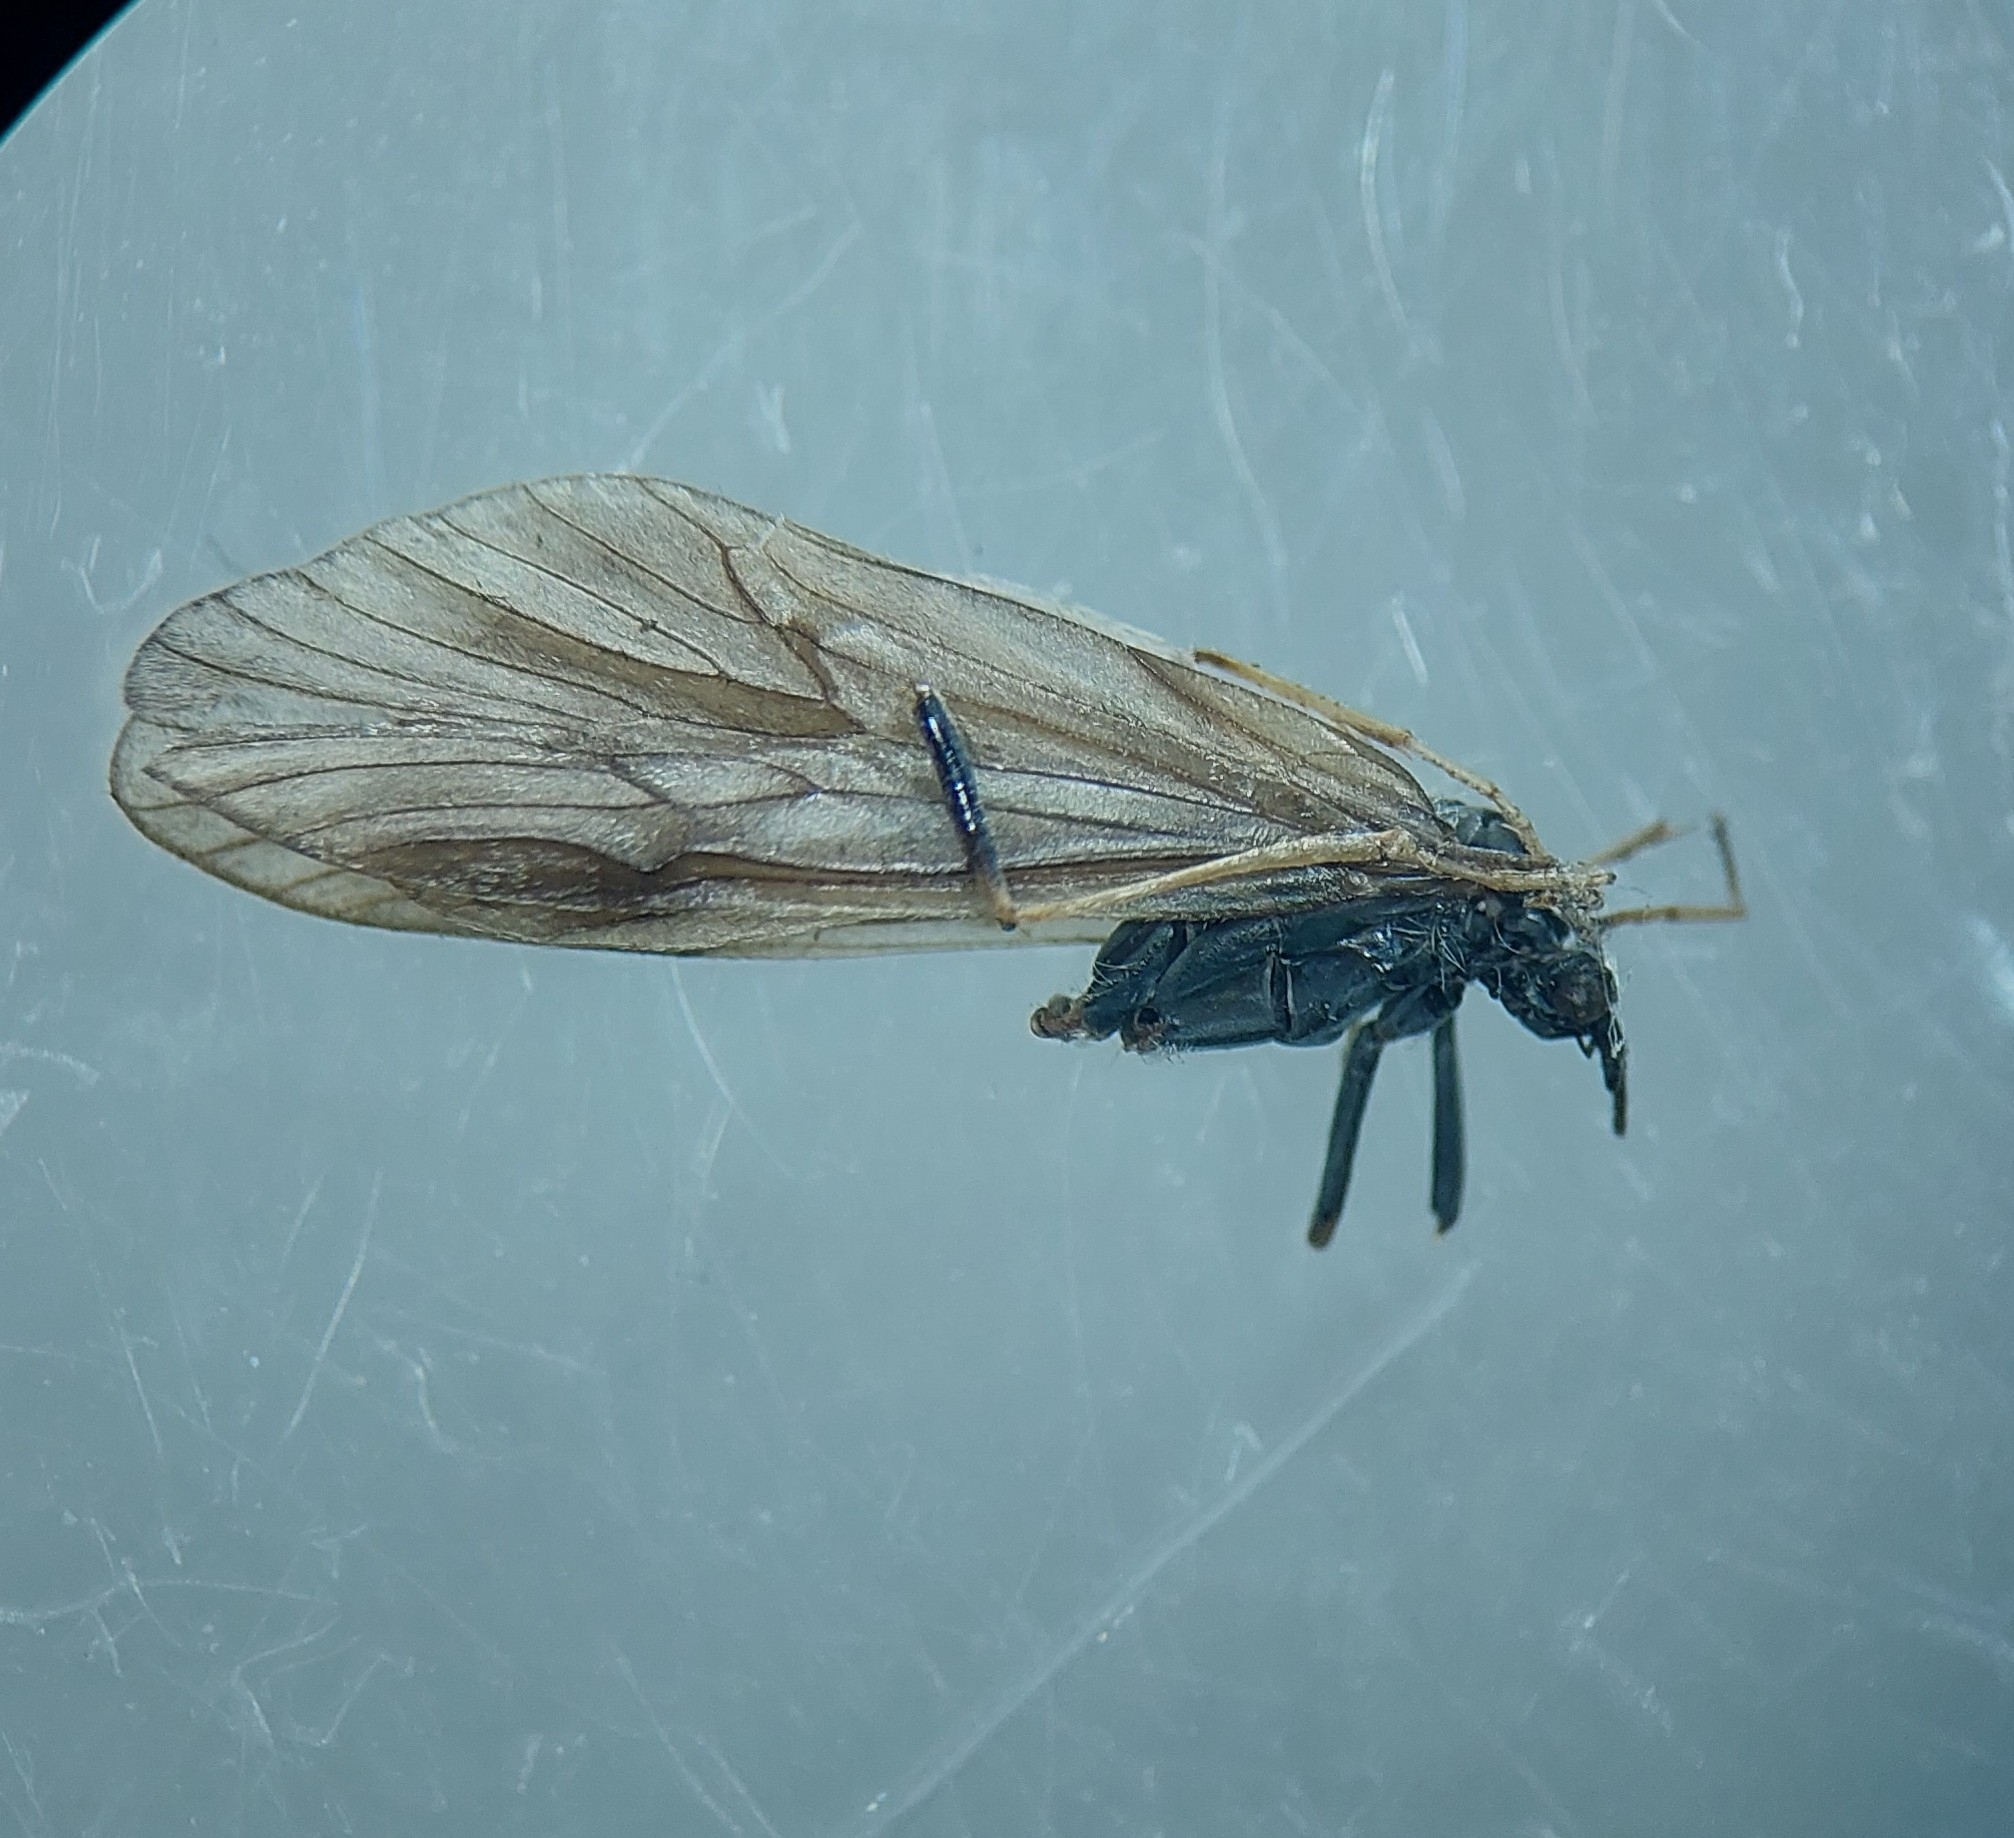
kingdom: Animalia
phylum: Arthropoda
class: Insecta
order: Trichoptera
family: Brachycentridae
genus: Brachycentrus
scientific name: Brachycentrus subnubilis
